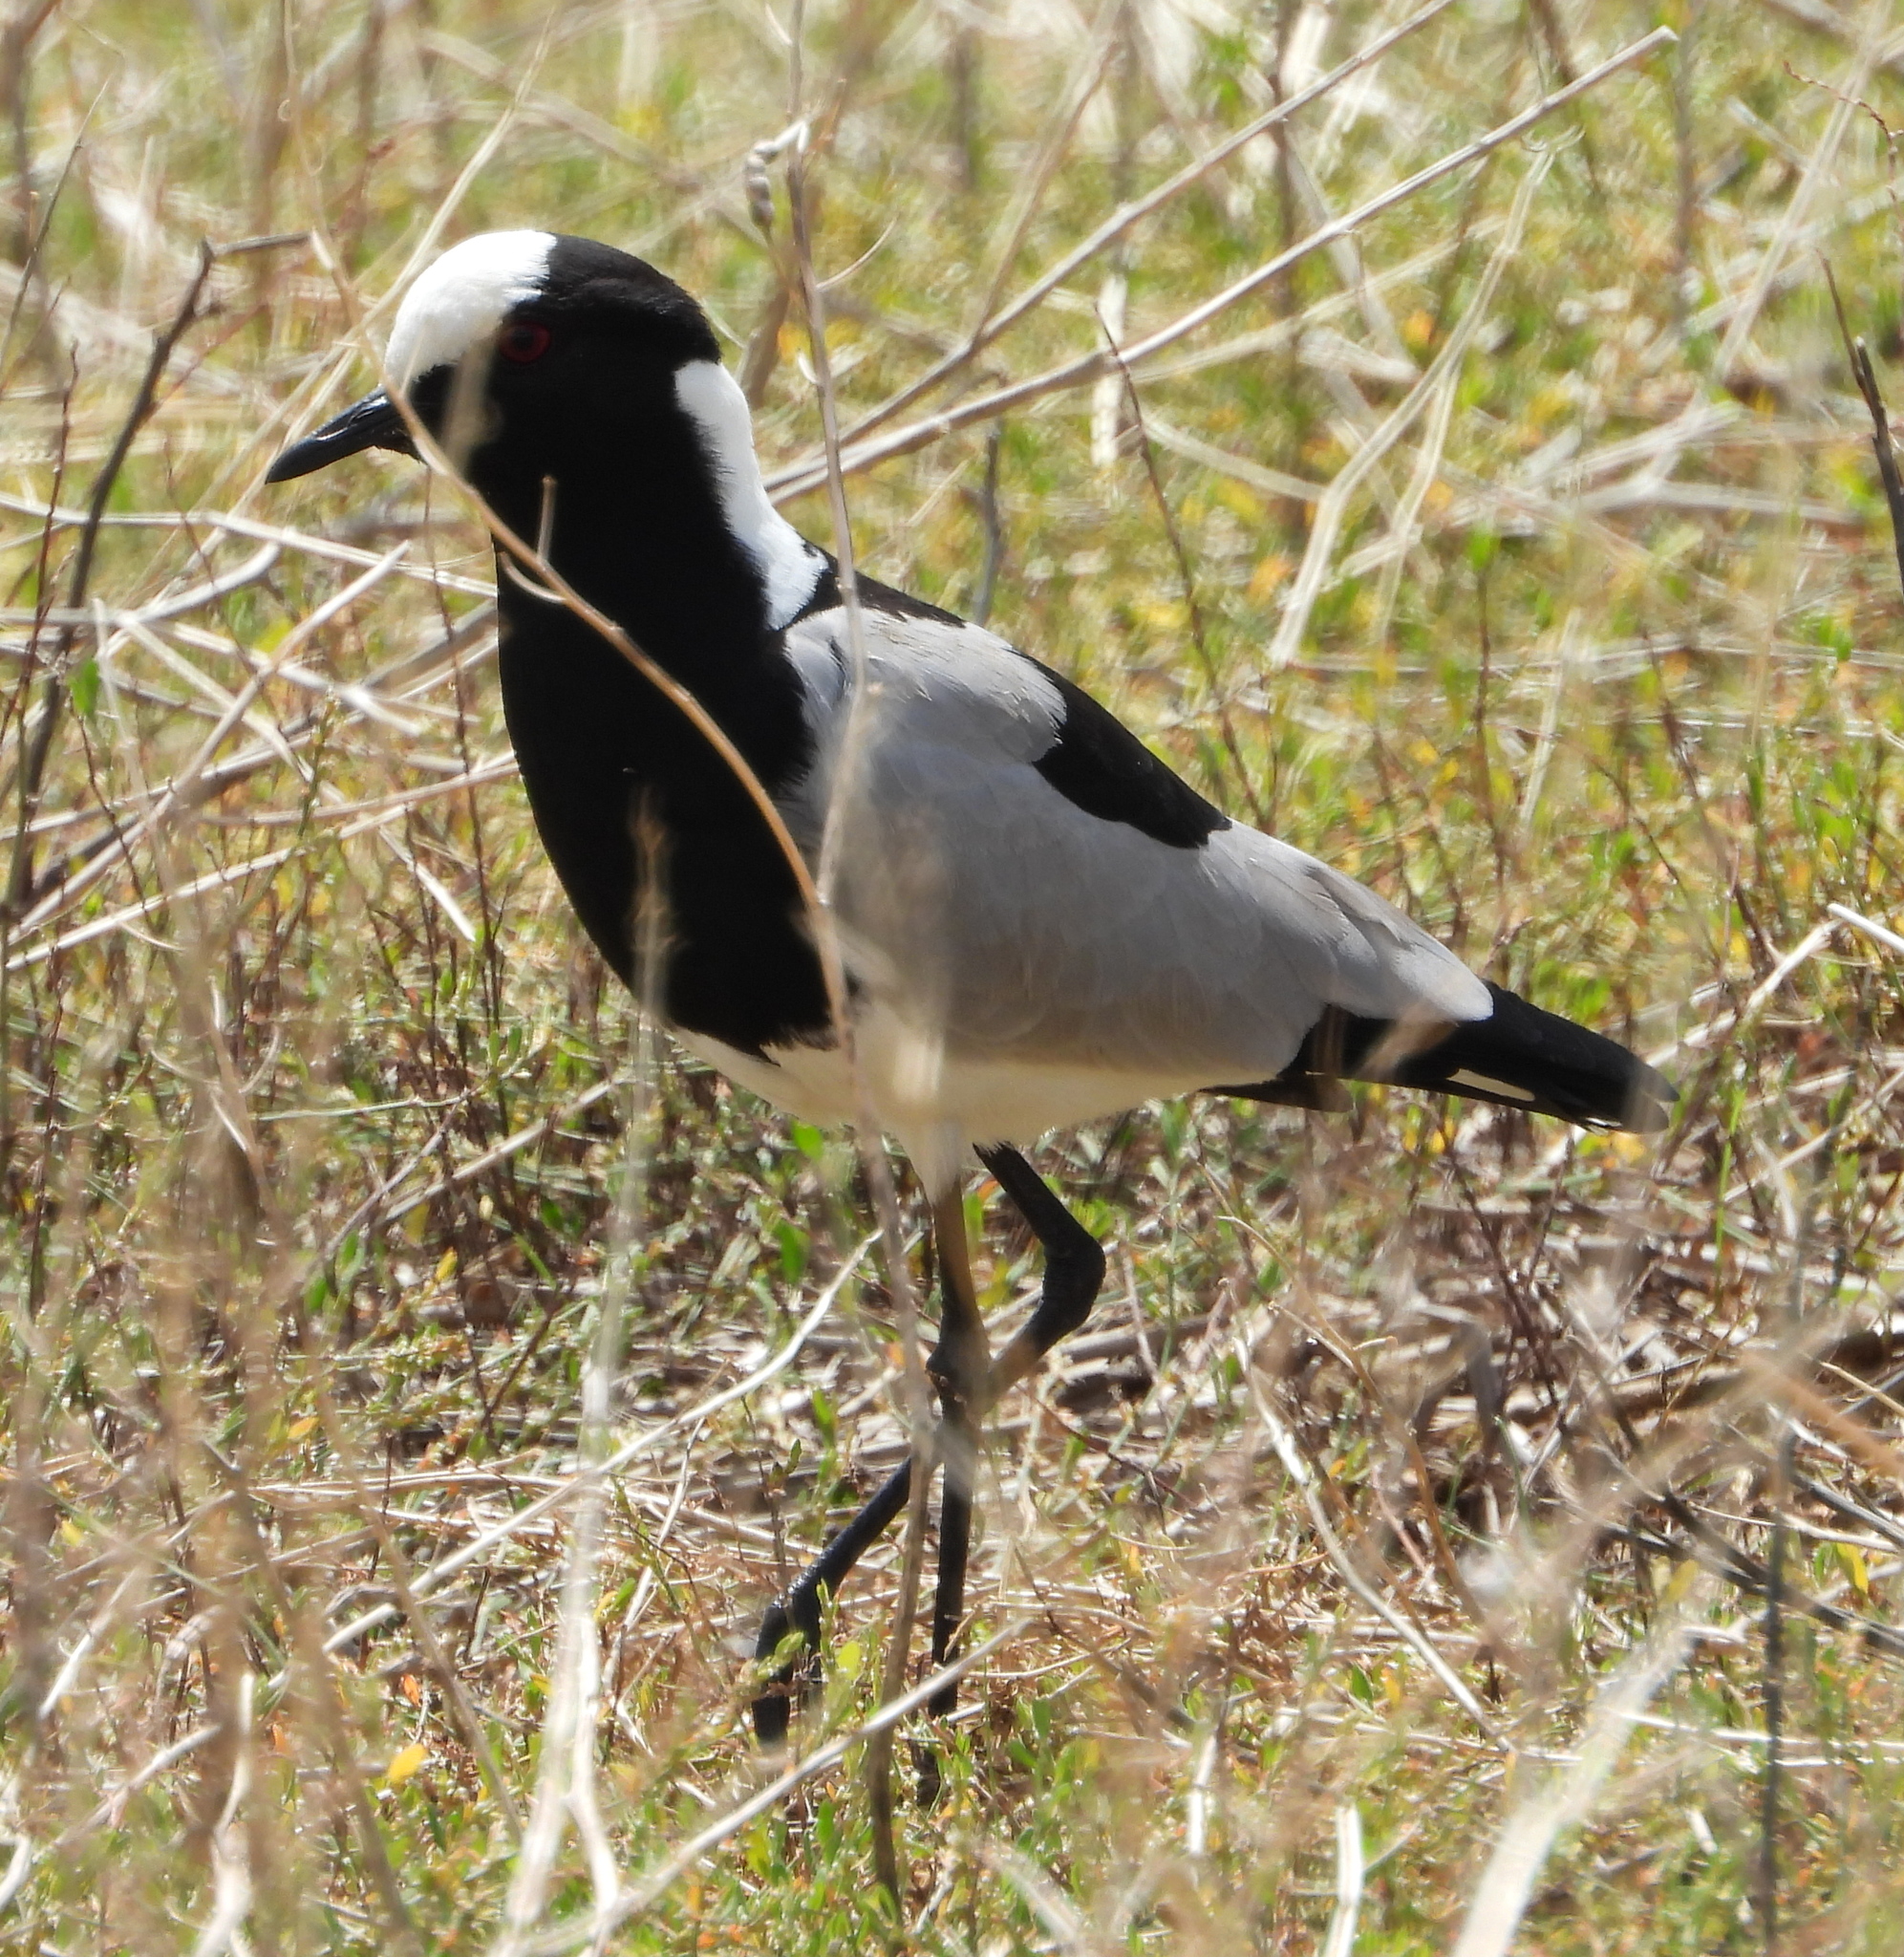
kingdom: Animalia
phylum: Chordata
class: Aves
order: Charadriiformes
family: Charadriidae
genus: Vanellus
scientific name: Vanellus armatus
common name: Blacksmith lapwing
